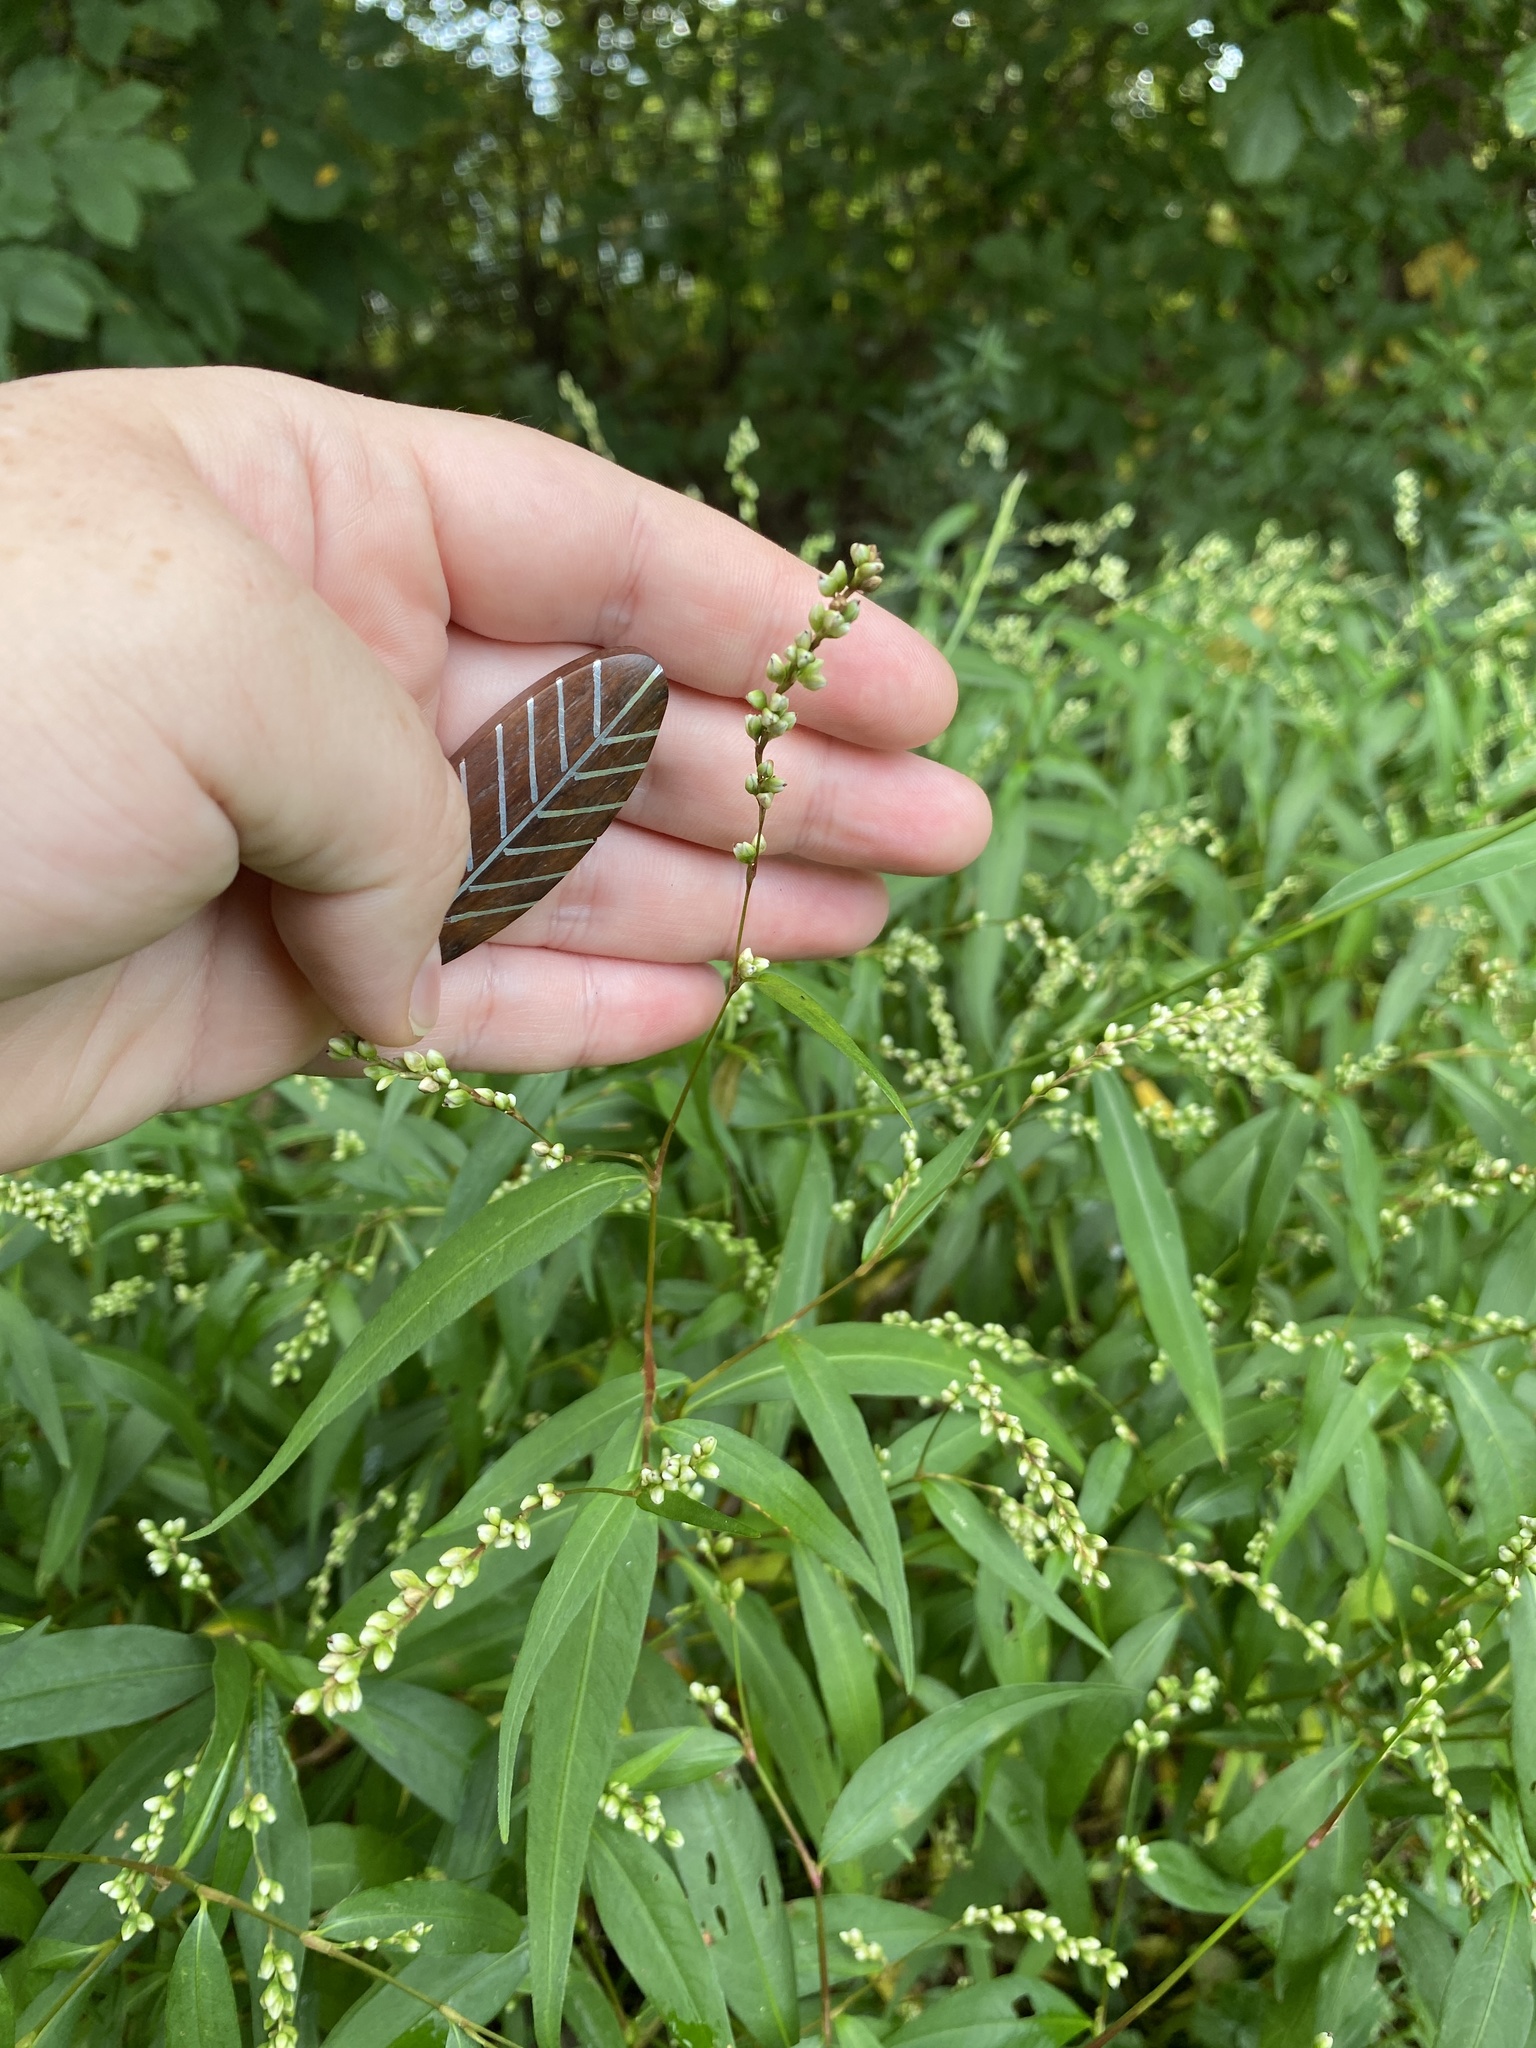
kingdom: Plantae
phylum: Tracheophyta
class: Magnoliopsida
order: Caryophyllales
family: Polygonaceae
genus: Persicaria
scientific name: Persicaria punctata
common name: Dotted smartweed
